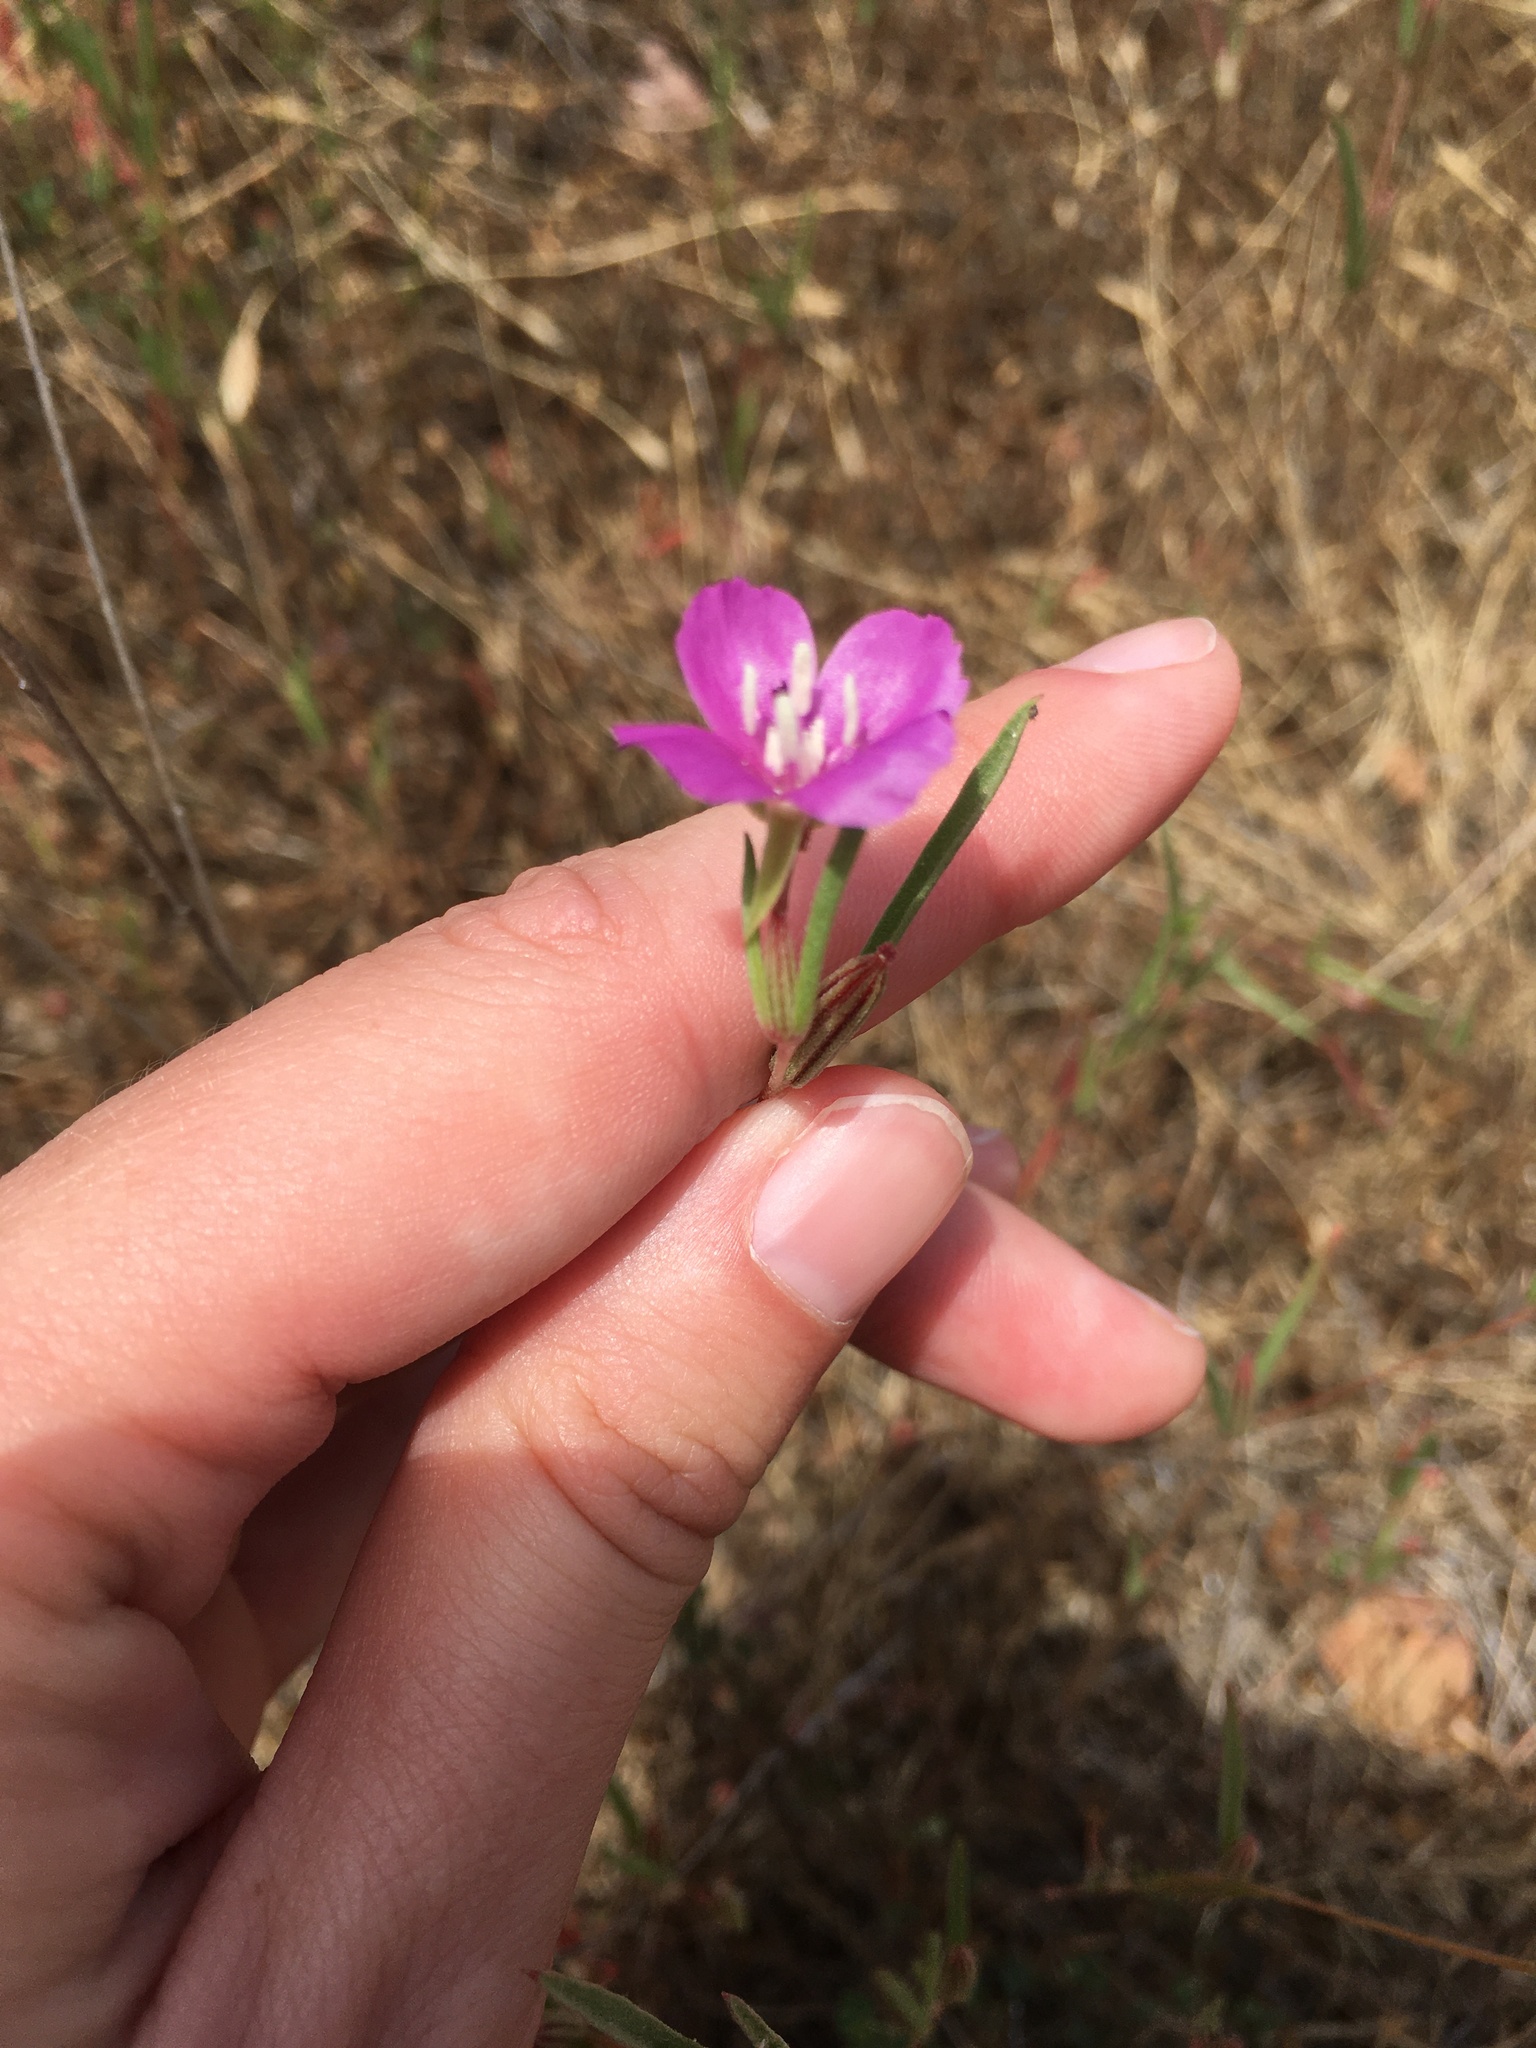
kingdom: Plantae
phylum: Tracheophyta
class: Magnoliopsida
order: Myrtales
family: Onagraceae
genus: Clarkia
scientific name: Clarkia purpurea
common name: Purple clarkia
